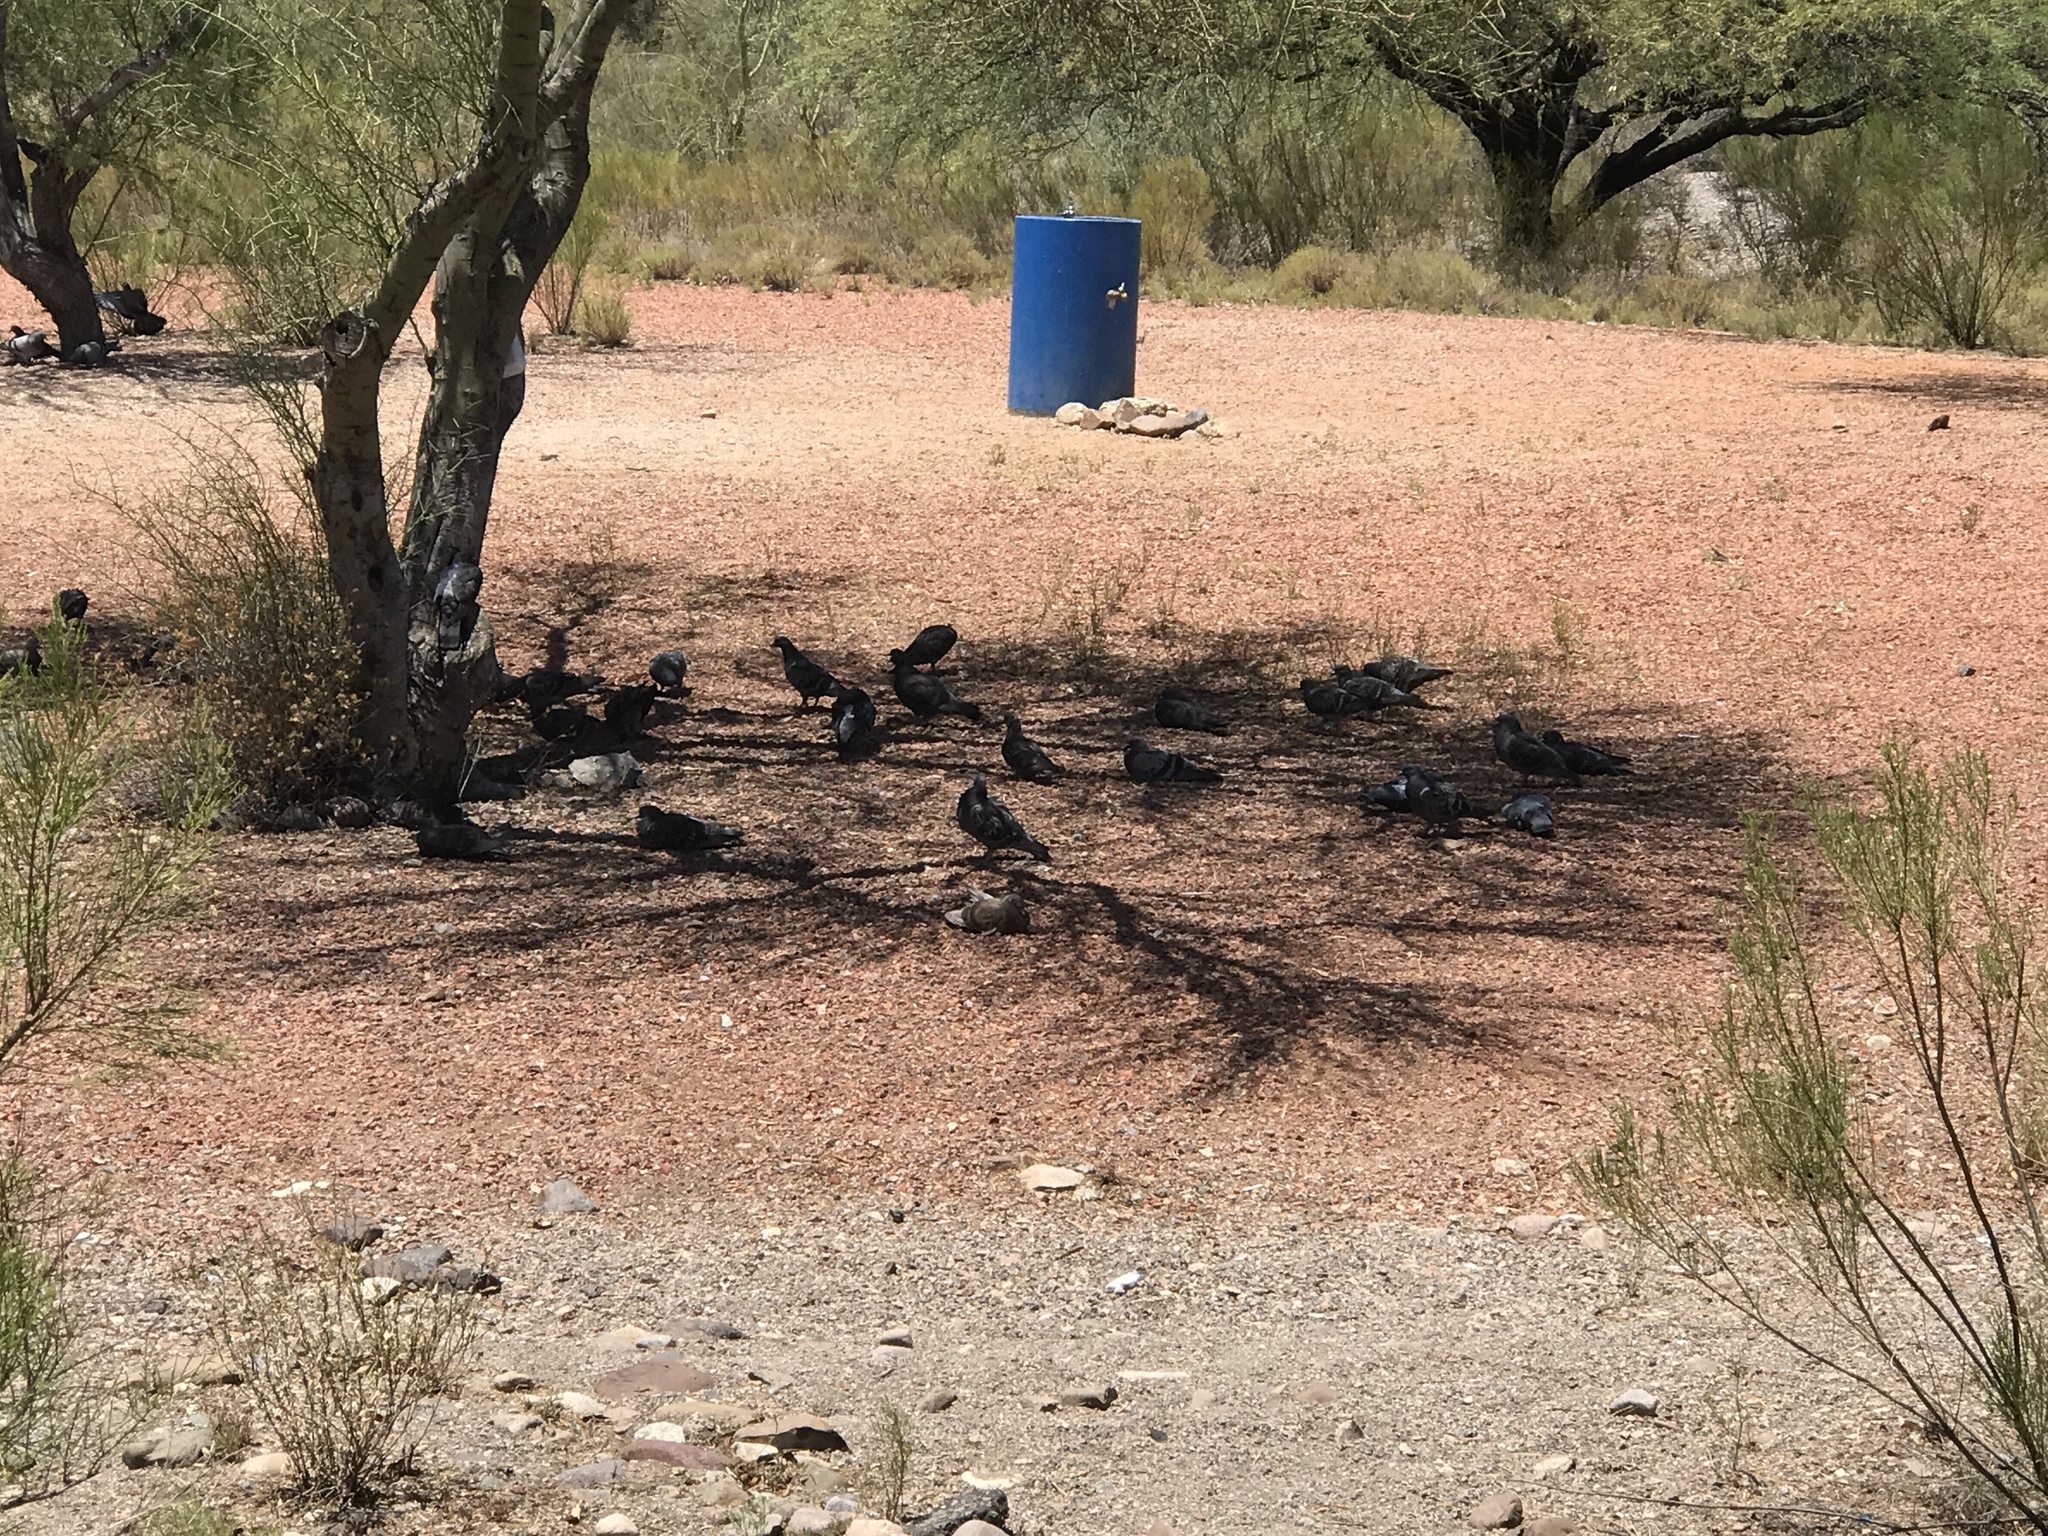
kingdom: Animalia
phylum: Chordata
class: Aves
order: Columbiformes
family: Columbidae
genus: Columba
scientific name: Columba livia
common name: Rock pigeon
